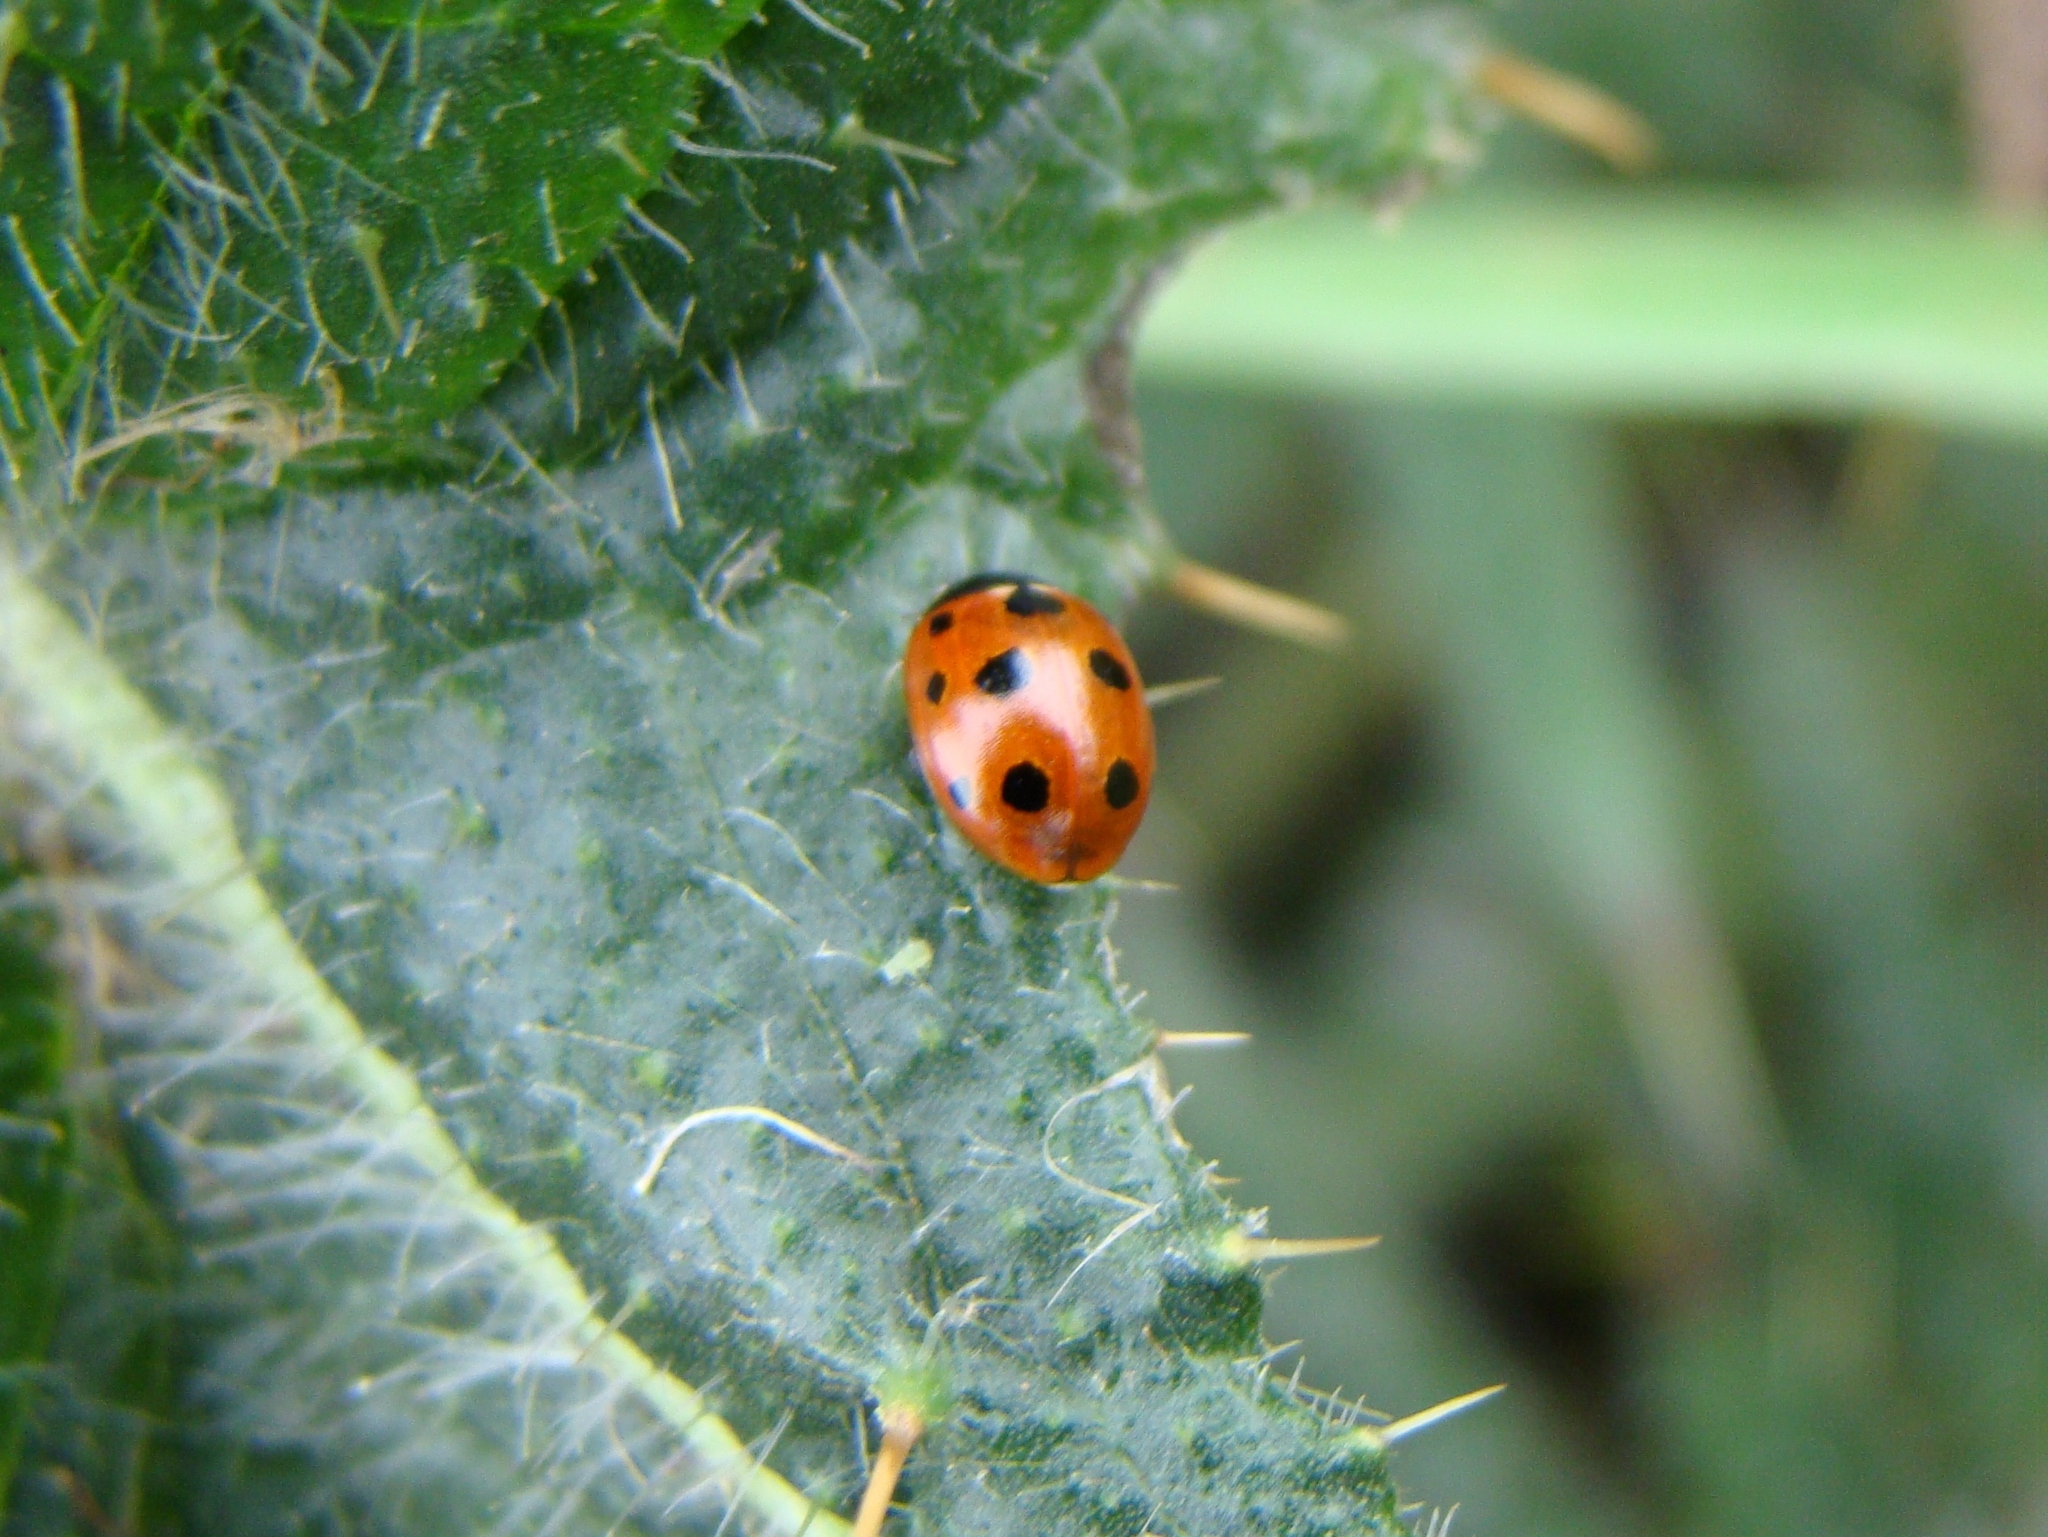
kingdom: Animalia
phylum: Arthropoda
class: Insecta
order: Coleoptera
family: Coccinellidae
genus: Coccinella
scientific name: Coccinella undecimpunctata
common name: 11-spot ladybird
